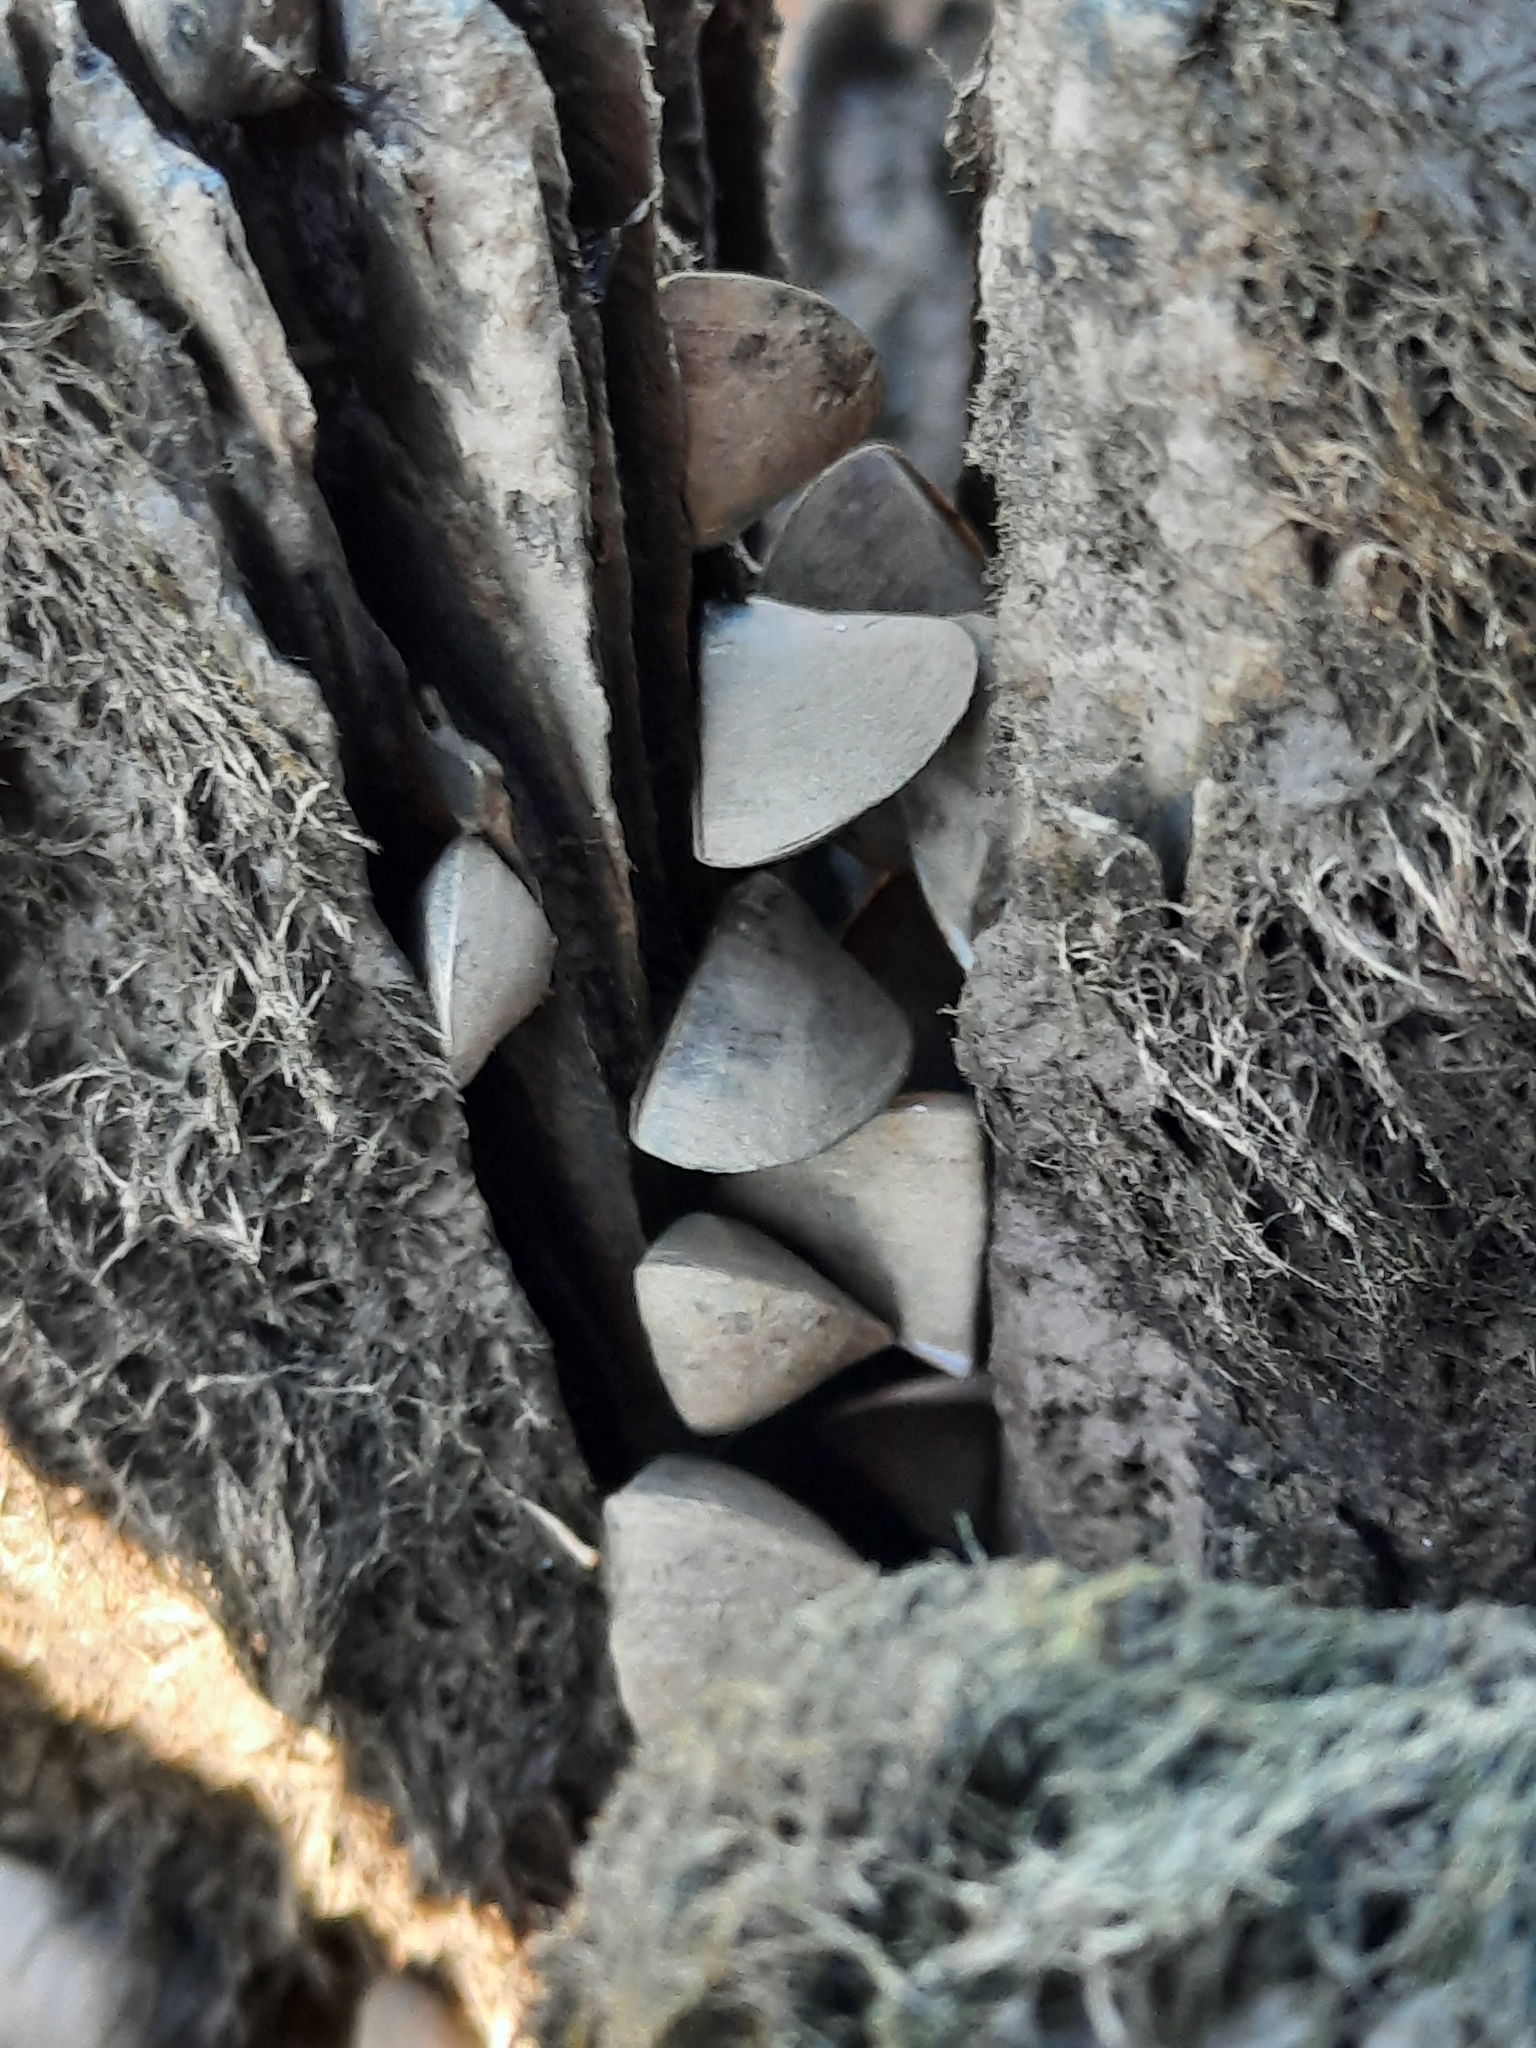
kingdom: Animalia
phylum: Mollusca
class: Bivalvia
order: Myida
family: Dreissenidae
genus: Dreissena
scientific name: Dreissena polymorpha
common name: Zebra mussel
